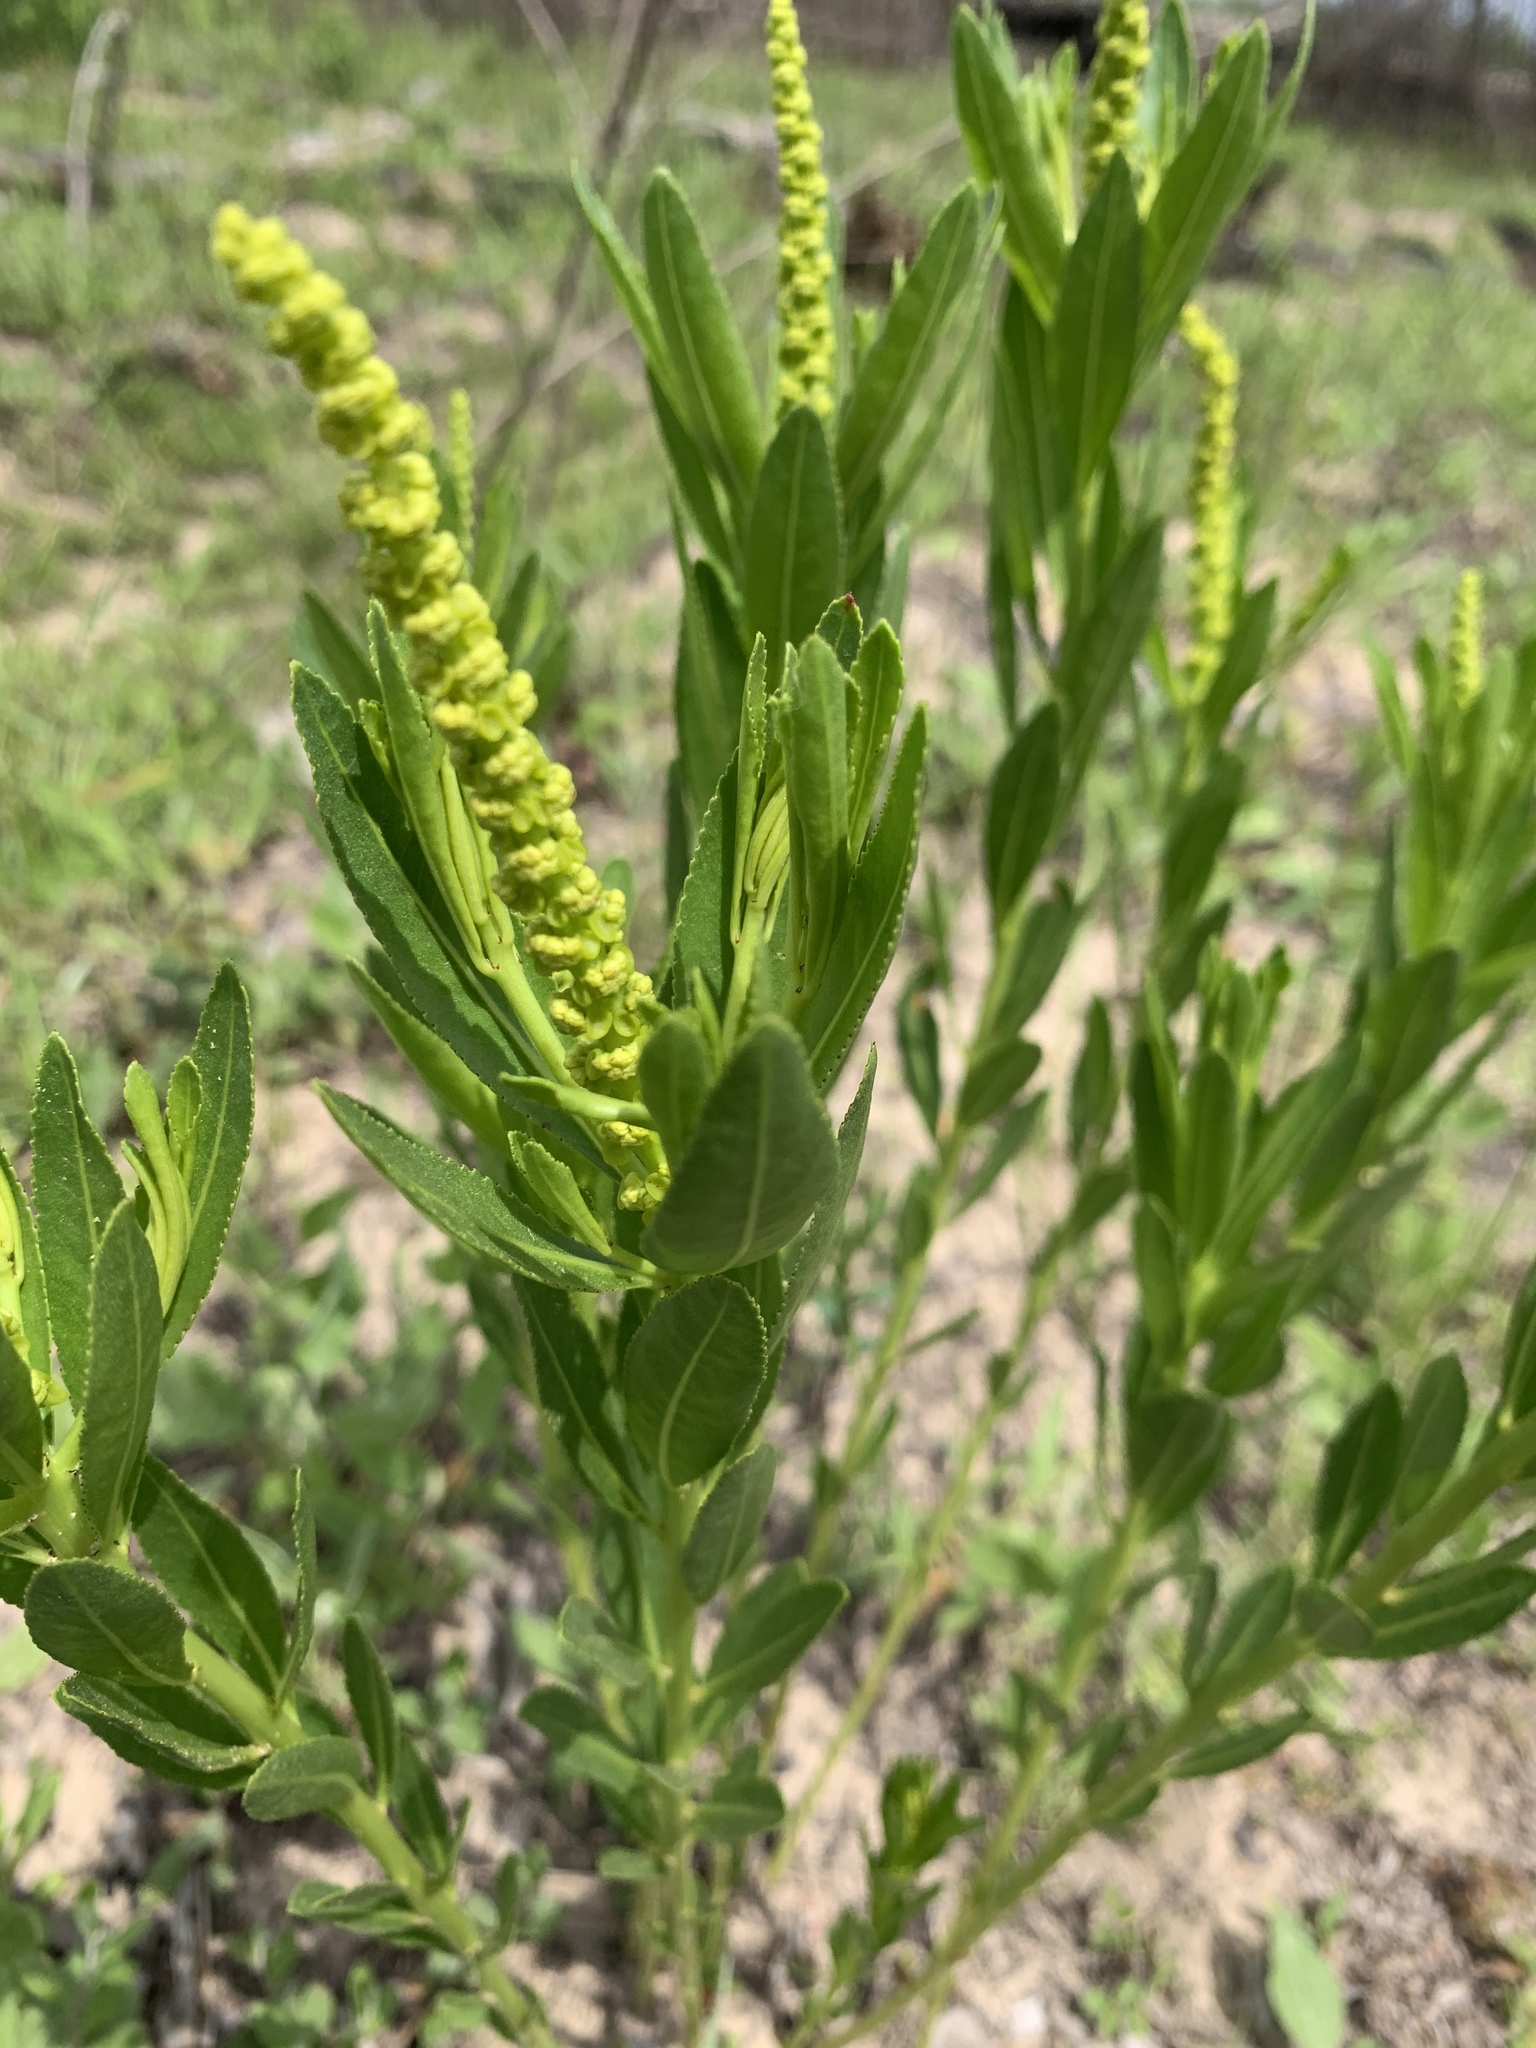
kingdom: Plantae
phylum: Tracheophyta
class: Magnoliopsida
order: Malpighiales
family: Euphorbiaceae
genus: Stillingia
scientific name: Stillingia sylvatica
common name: Queen's-delight
